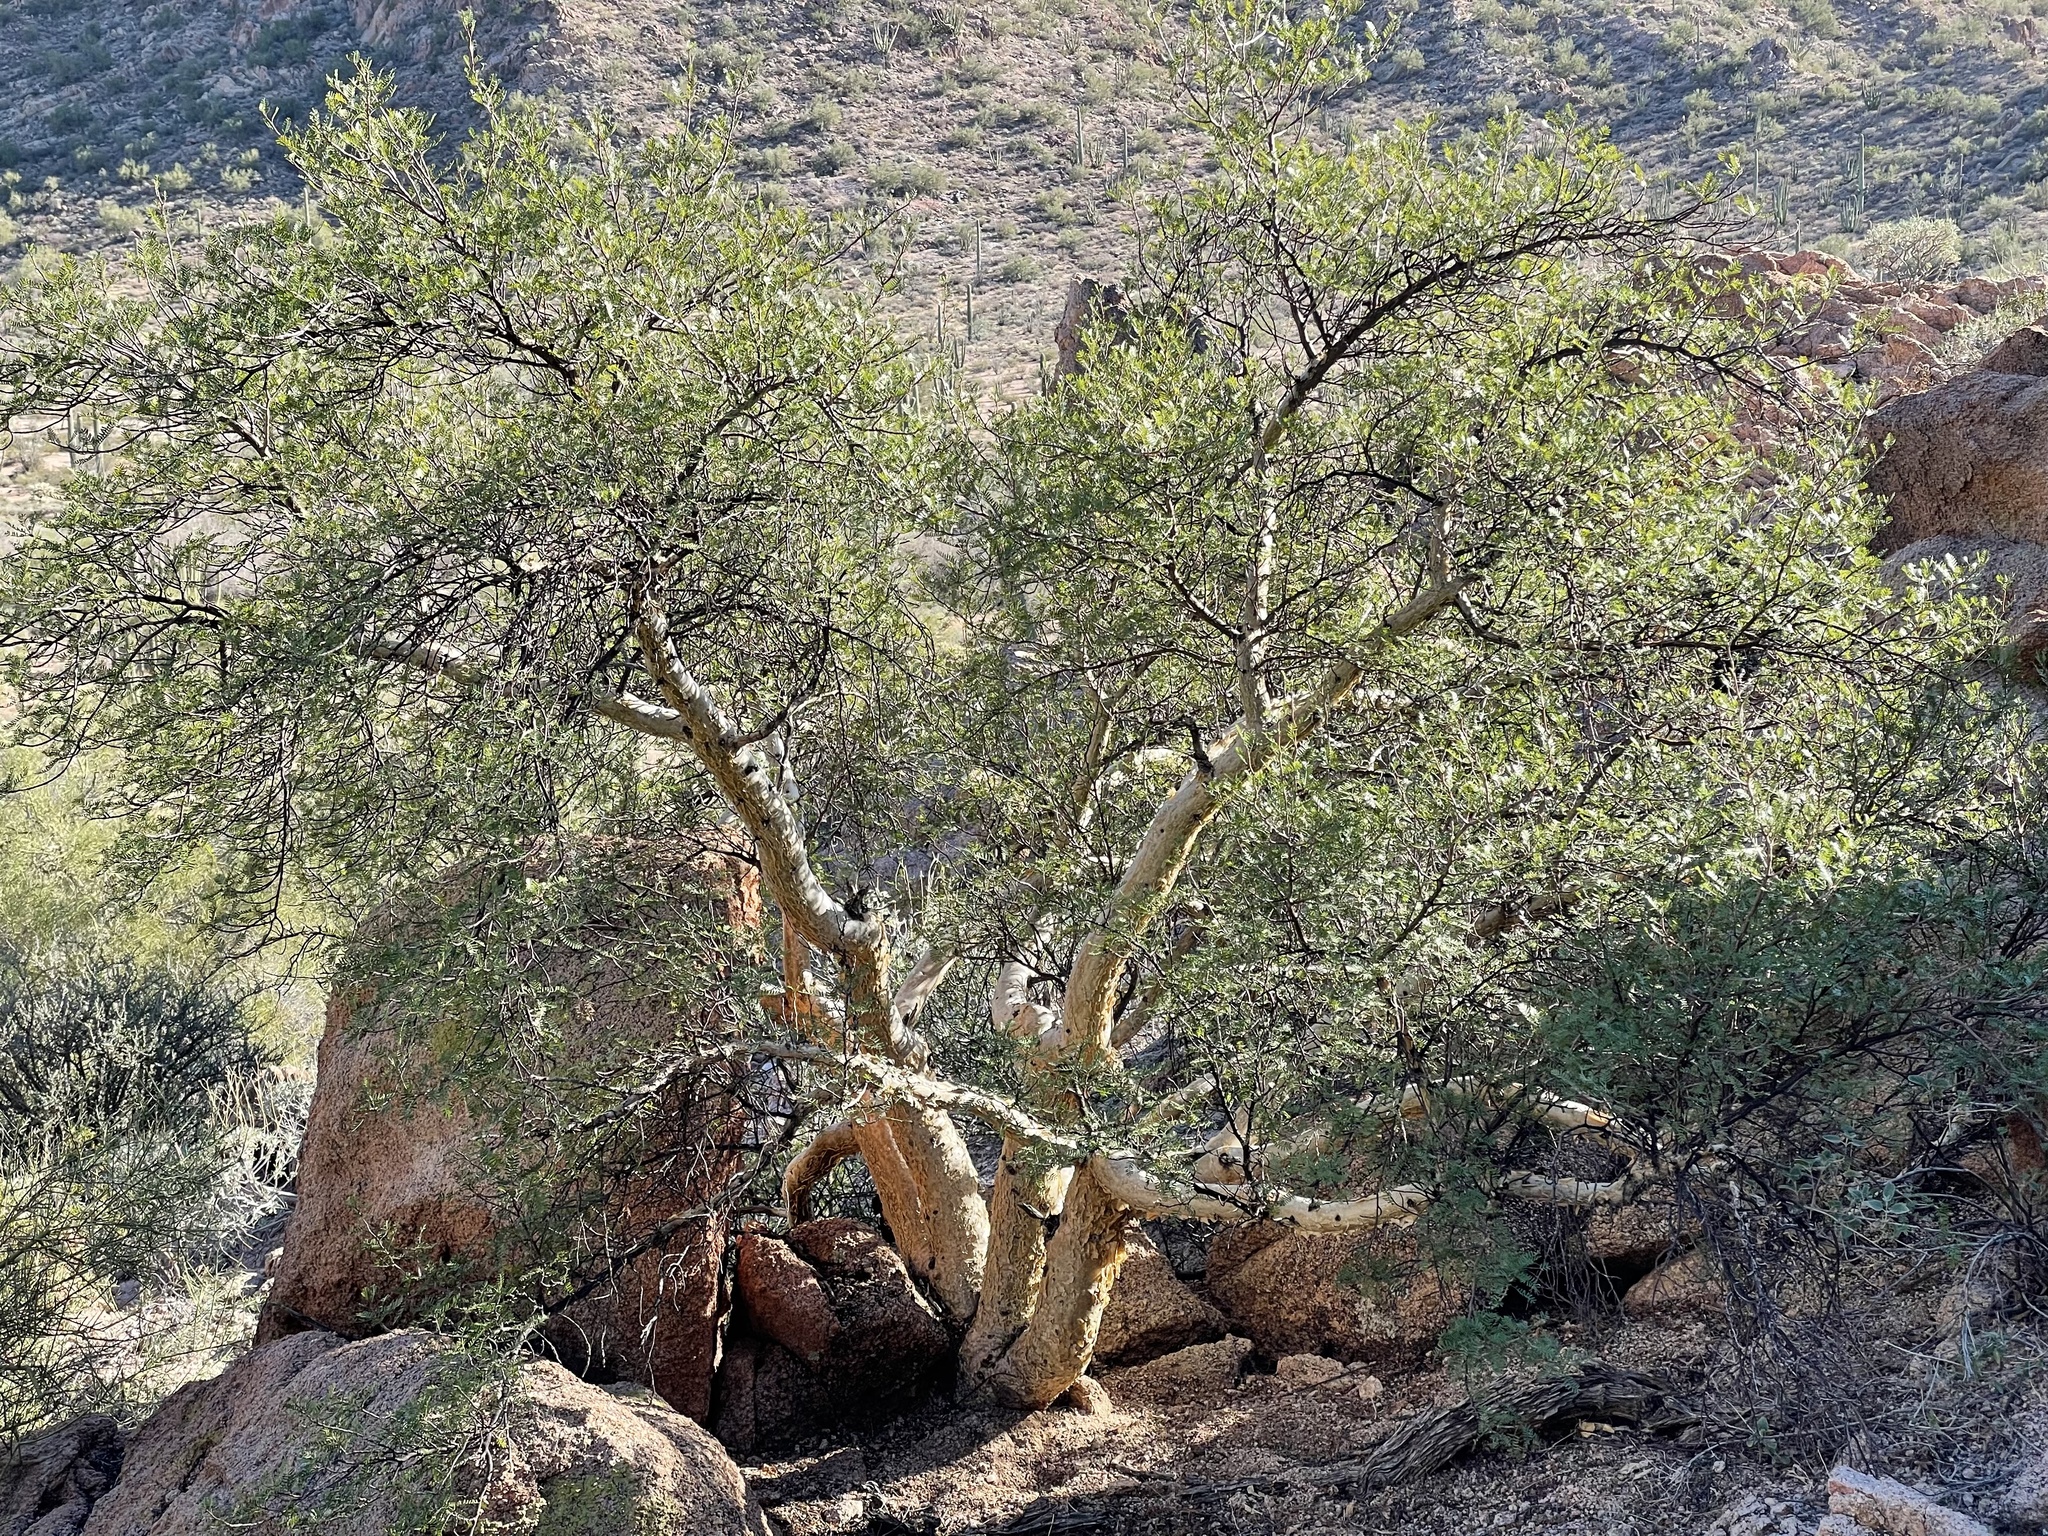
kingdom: Plantae
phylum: Tracheophyta
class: Magnoliopsida
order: Sapindales
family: Burseraceae
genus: Bursera
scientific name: Bursera microphylla
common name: Elephant tree
